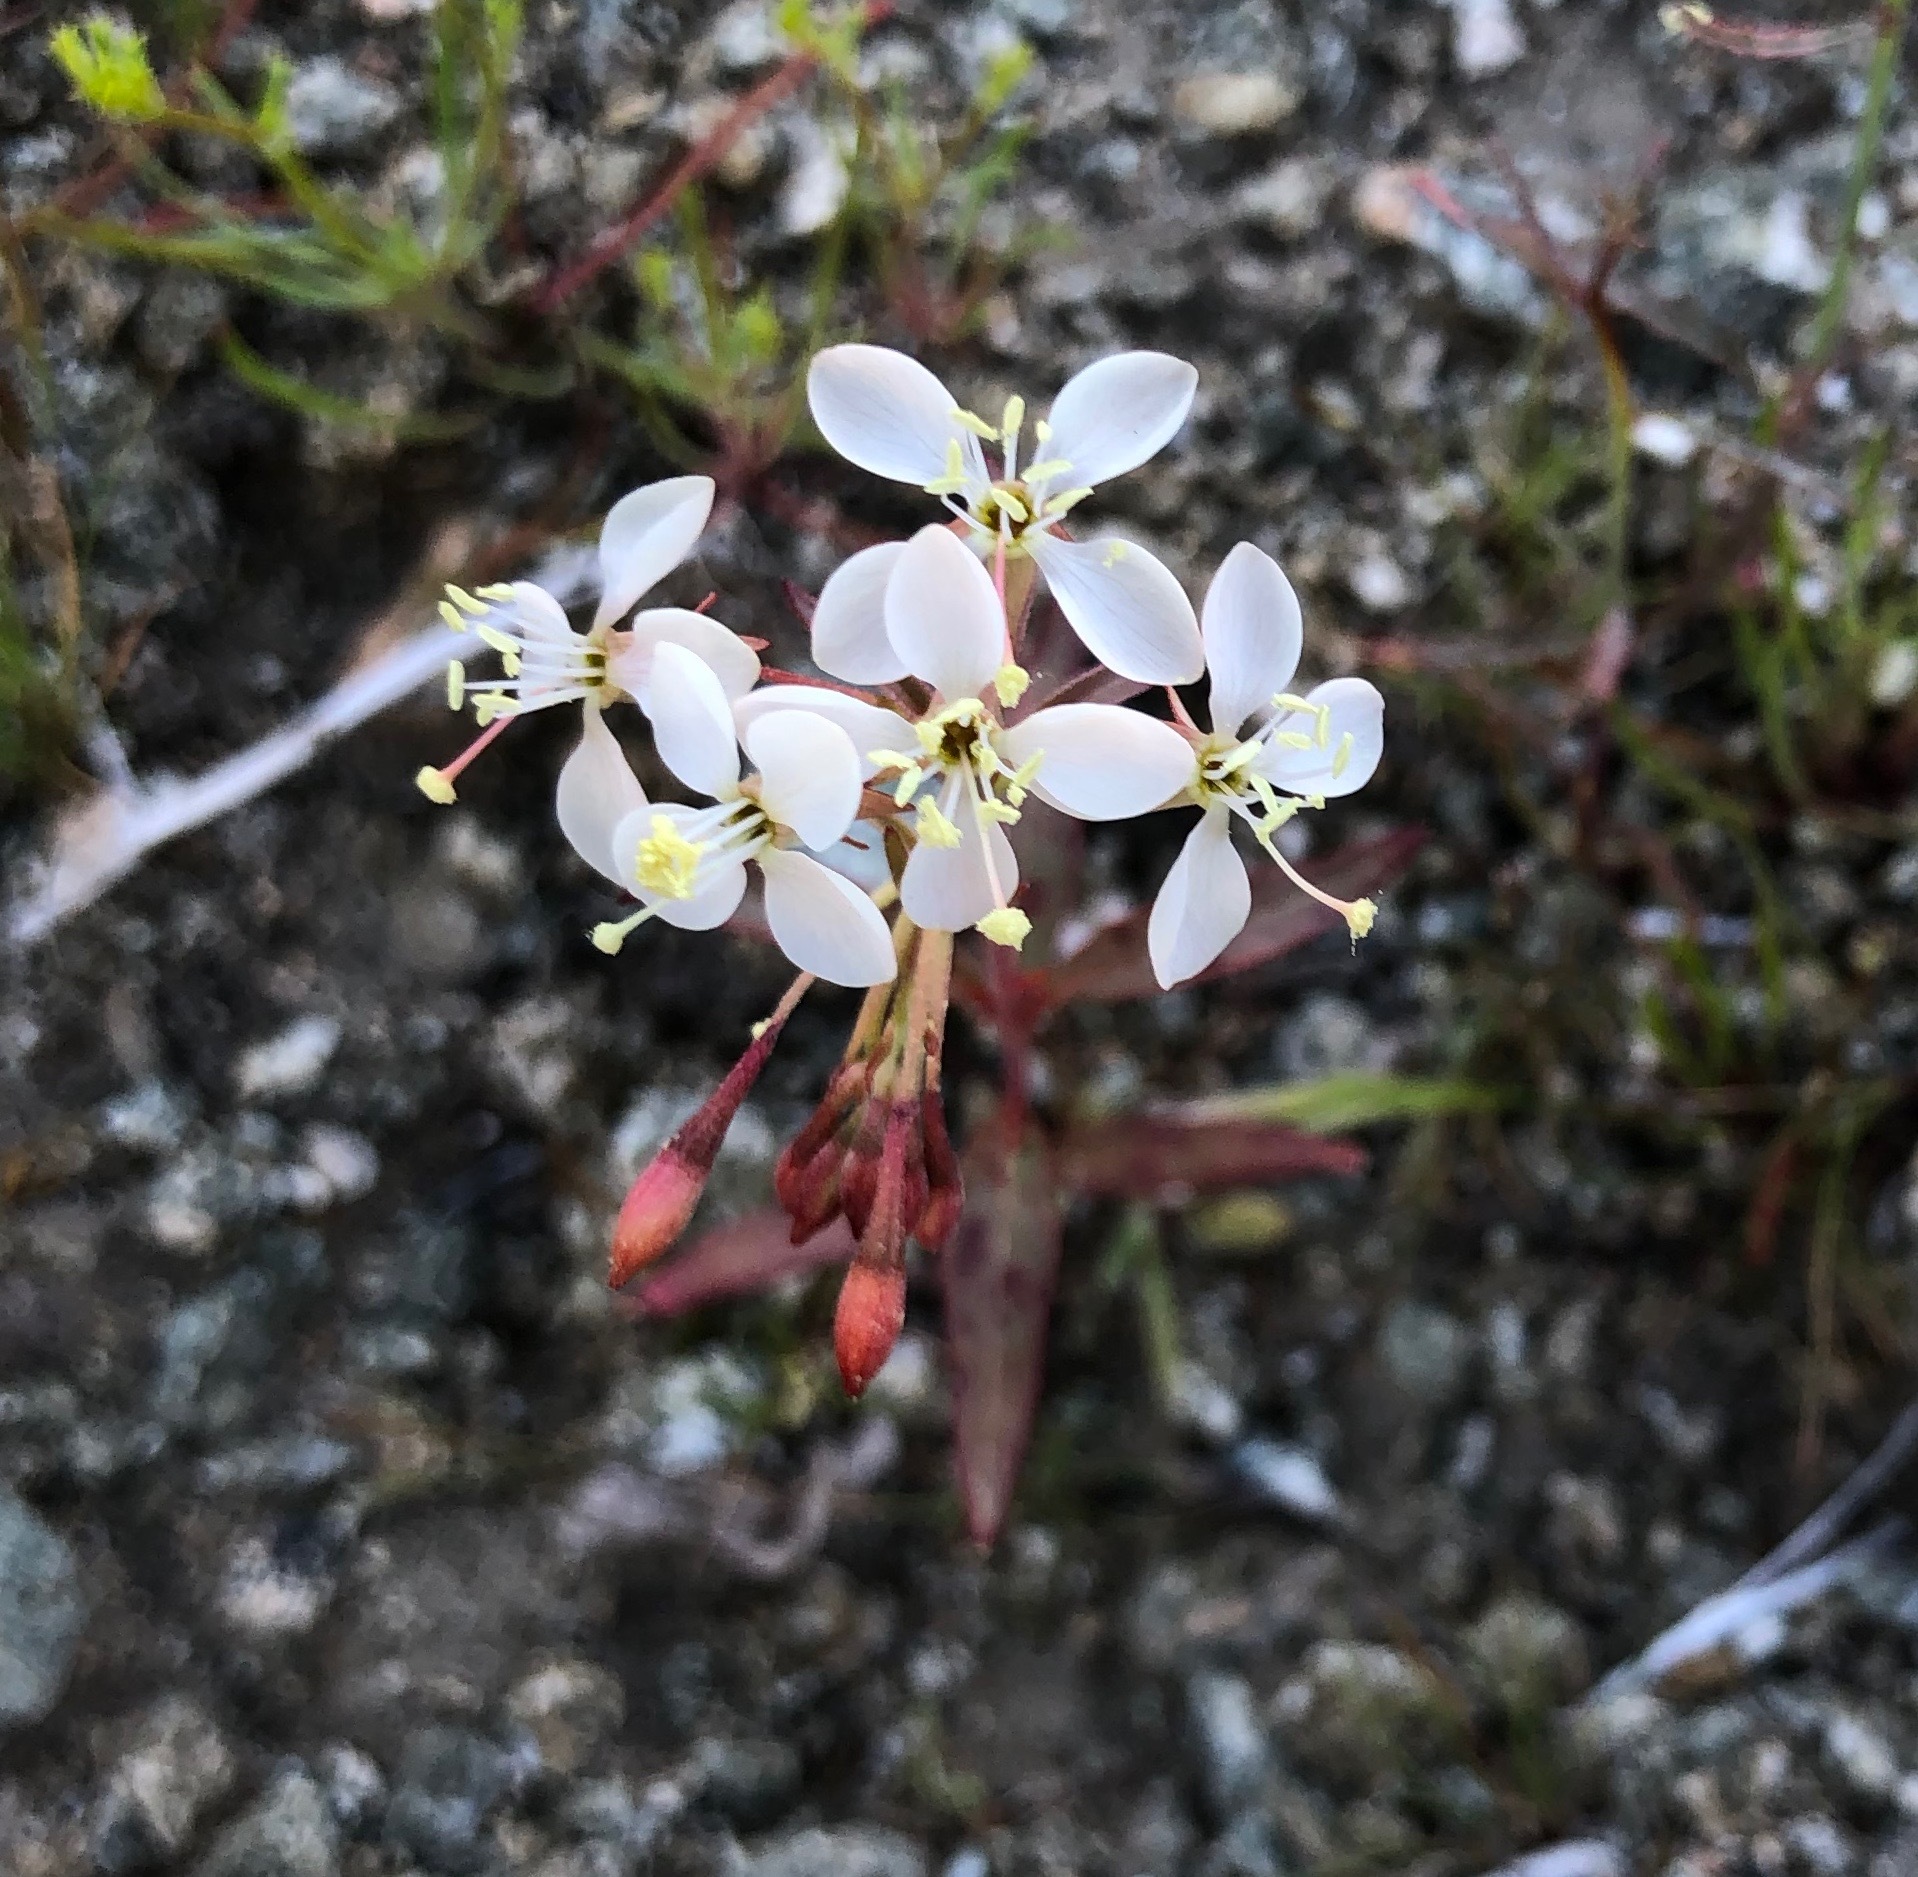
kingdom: Plantae
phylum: Tracheophyta
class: Magnoliopsida
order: Myrtales
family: Onagraceae
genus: Eremothera
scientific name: Eremothera refracta
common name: Narrowleaf suncup
